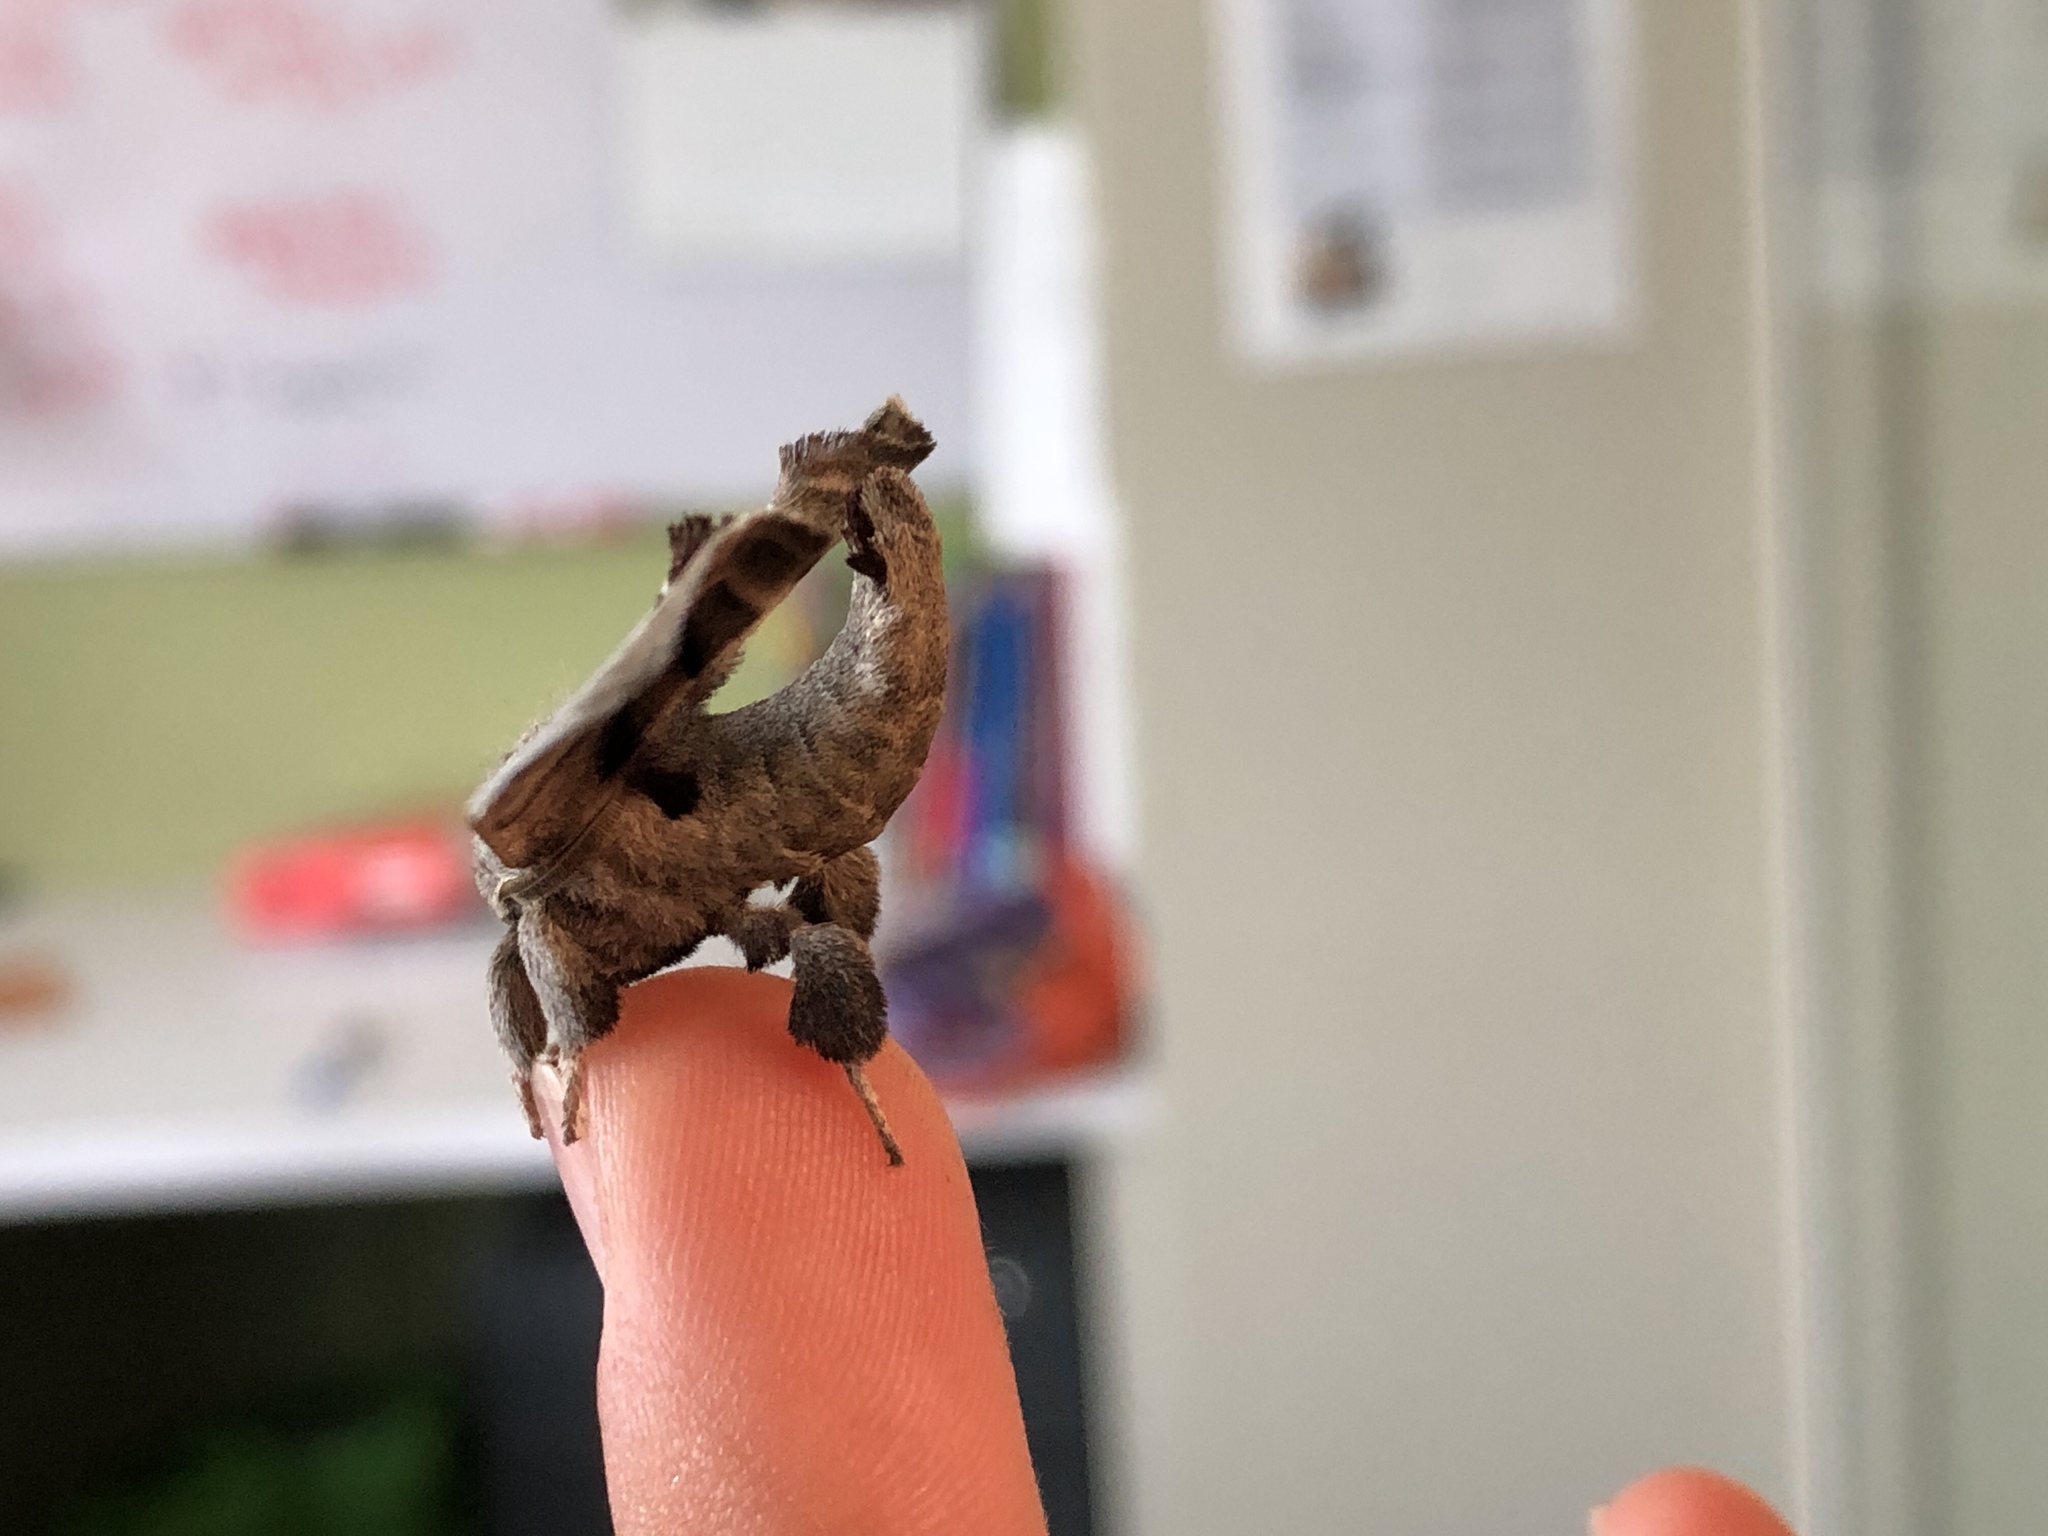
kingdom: Animalia
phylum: Arthropoda
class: Insecta
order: Lepidoptera
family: Apatelodidae
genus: Hygrochroa
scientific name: Hygrochroa Apatelodes torrefacta
